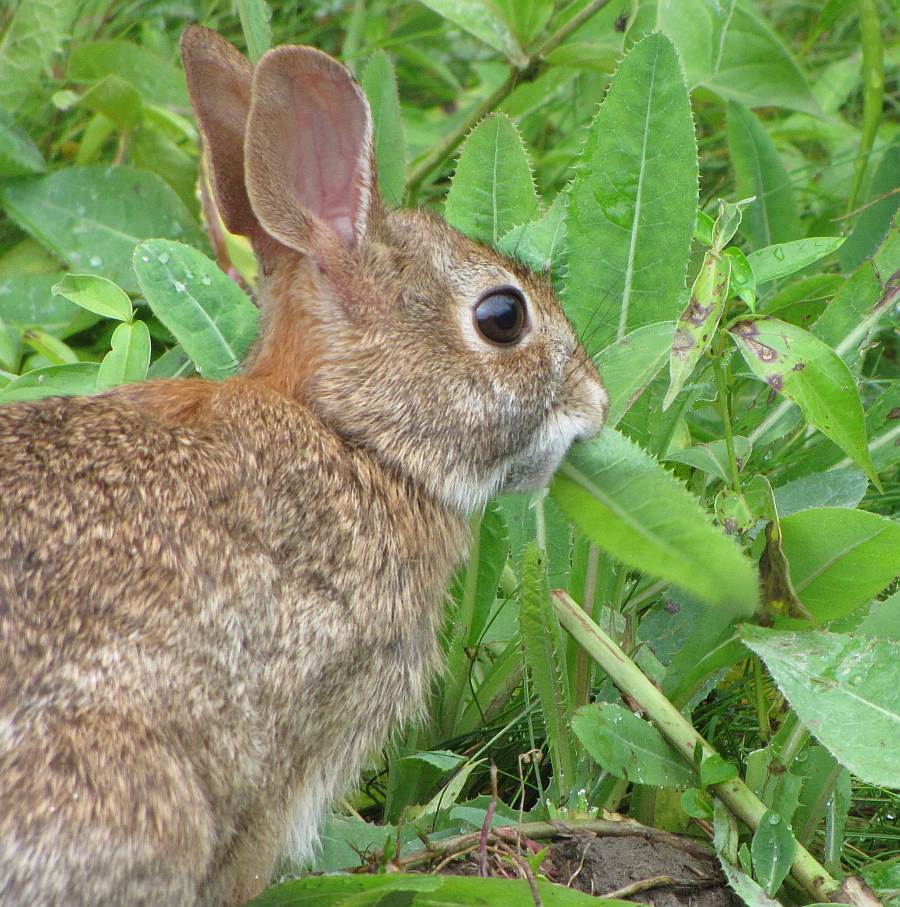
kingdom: Animalia
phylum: Chordata
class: Mammalia
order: Lagomorpha
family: Leporidae
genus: Sylvilagus
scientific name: Sylvilagus floridanus
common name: Eastern cottontail
